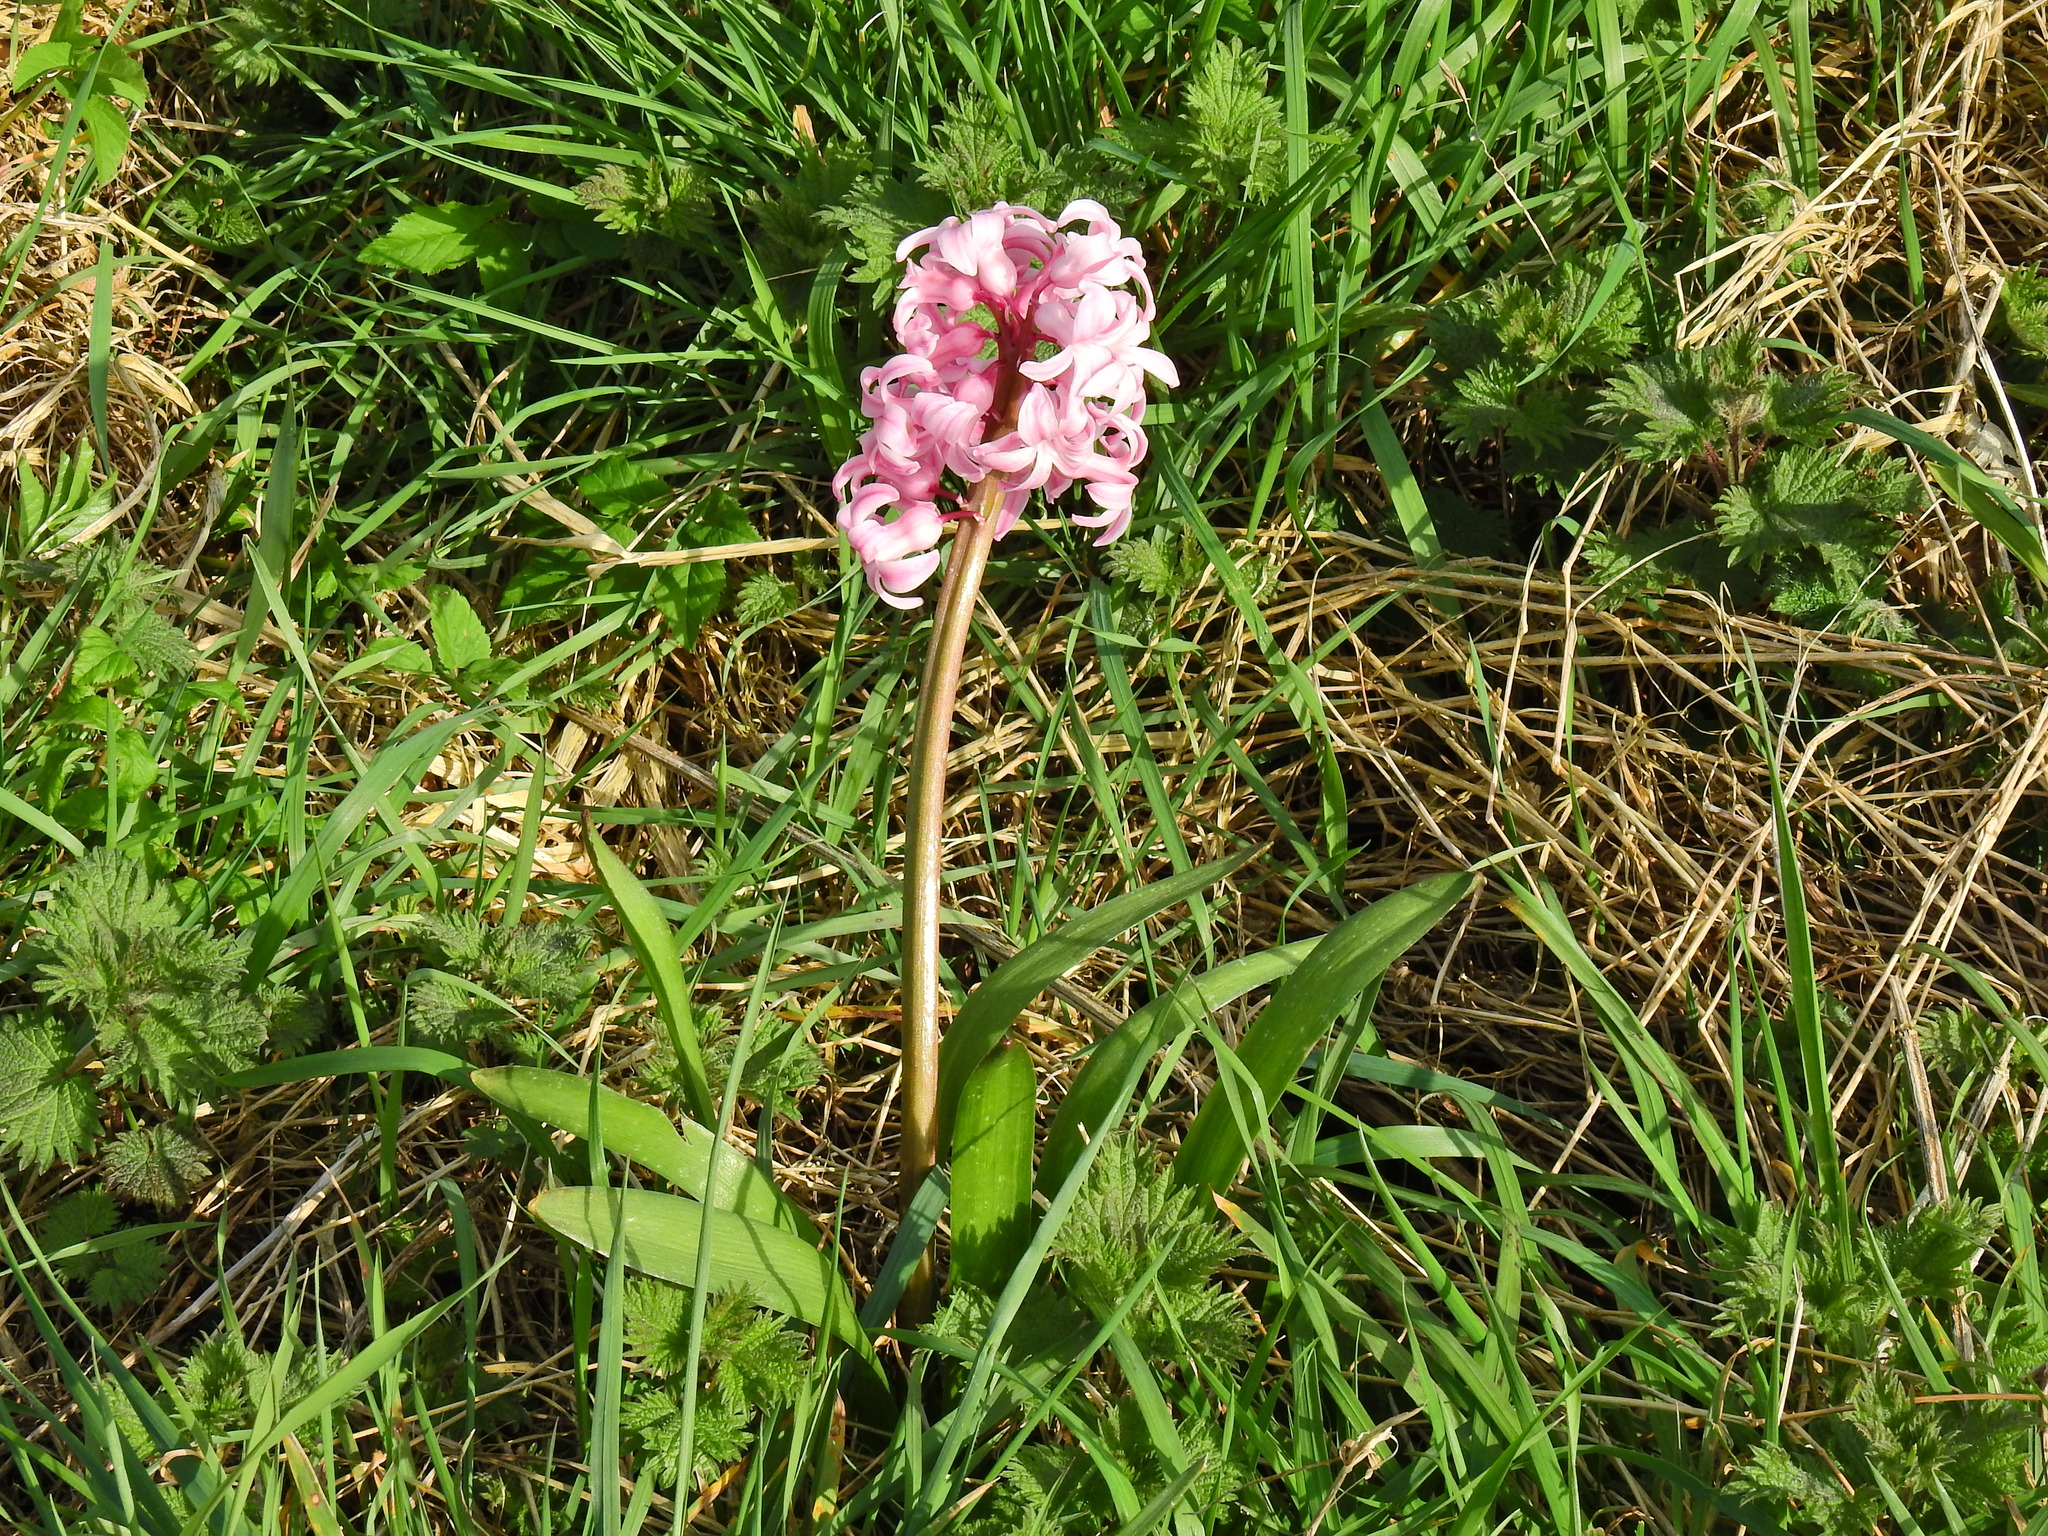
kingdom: Plantae
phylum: Tracheophyta
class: Liliopsida
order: Asparagales
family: Asparagaceae
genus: Hyacinthus
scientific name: Hyacinthus orientalis
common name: Hyacinth
